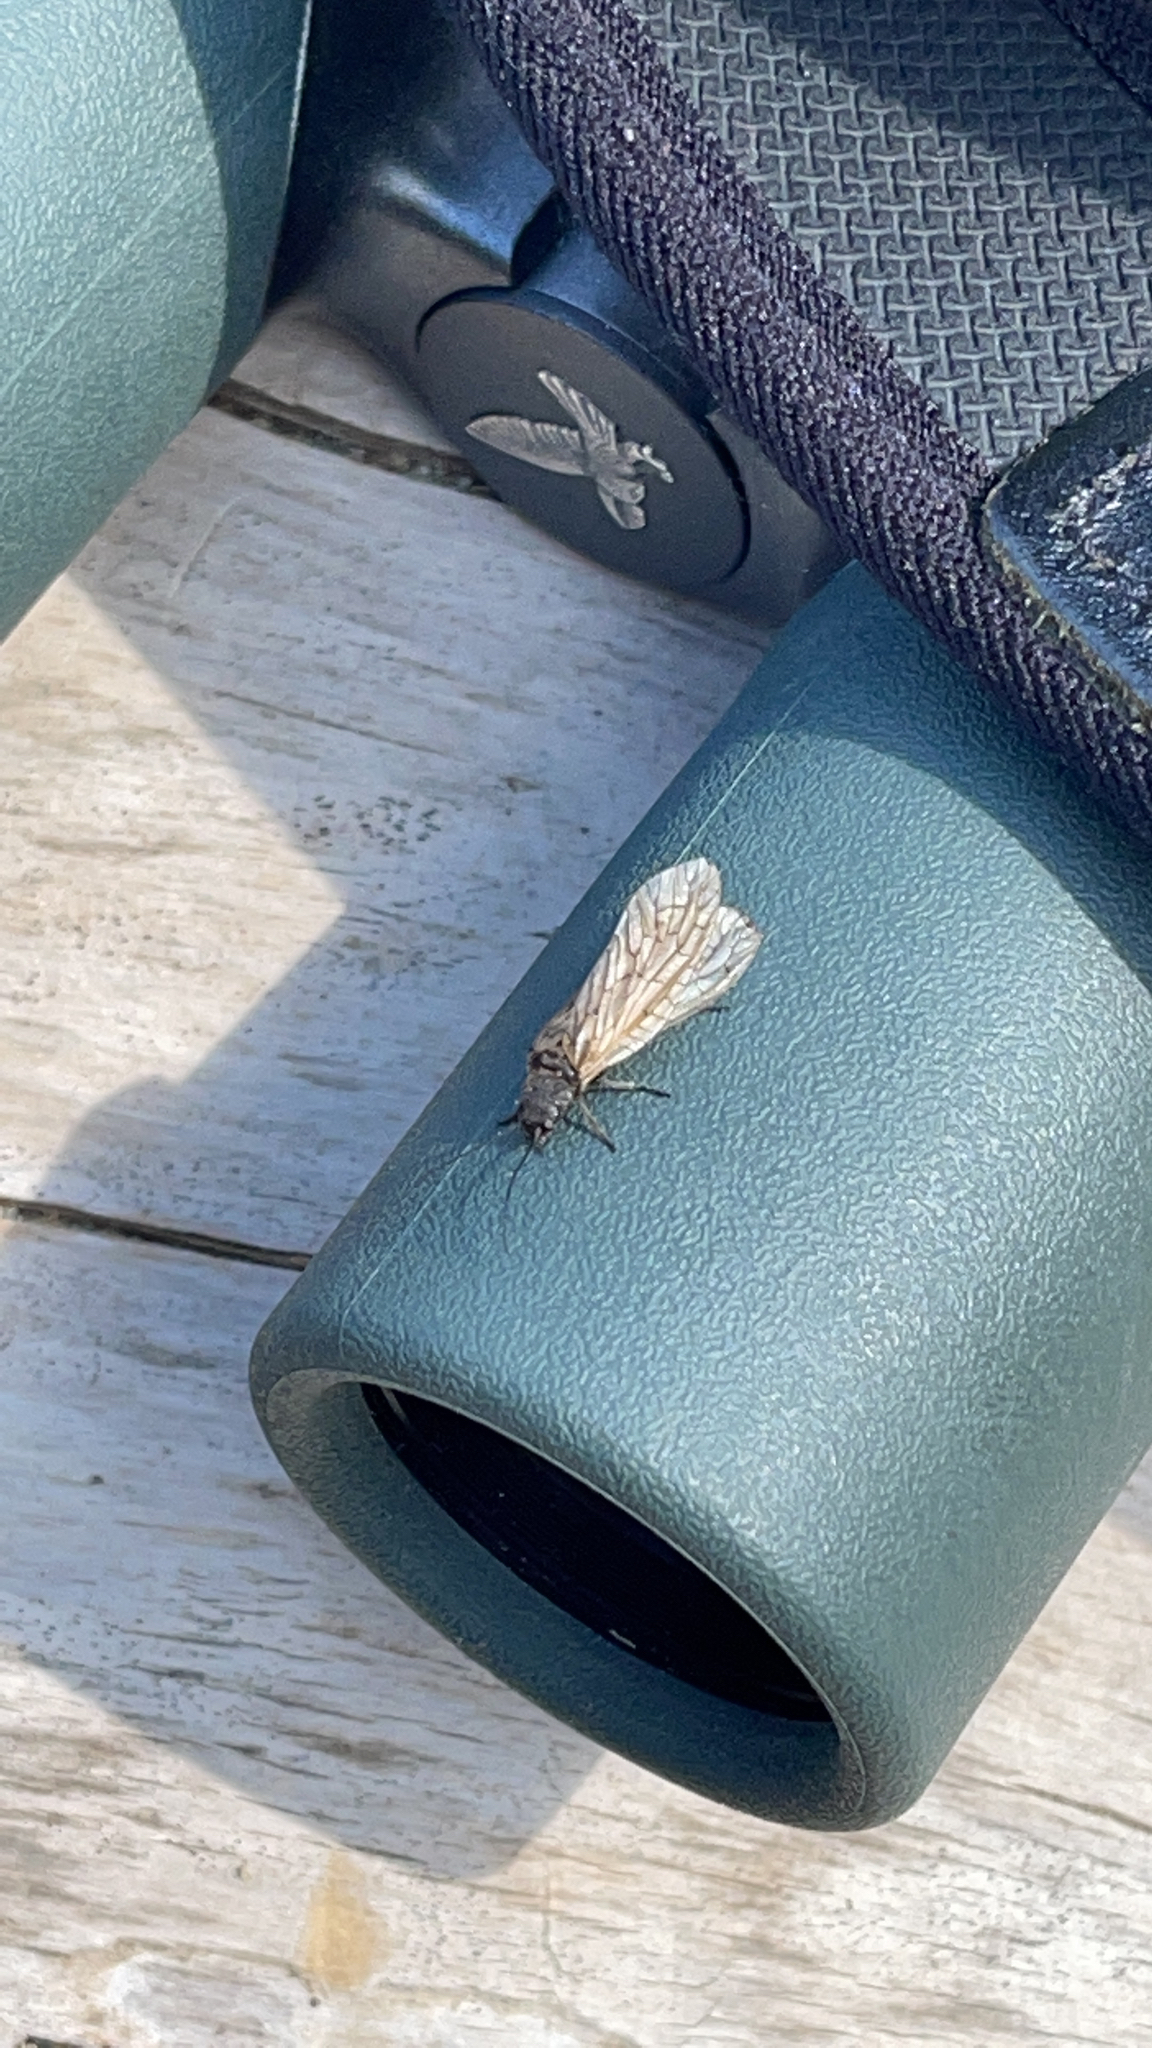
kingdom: Animalia
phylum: Arthropoda
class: Insecta
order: Megaloptera
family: Sialidae
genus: Sialis
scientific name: Sialis
